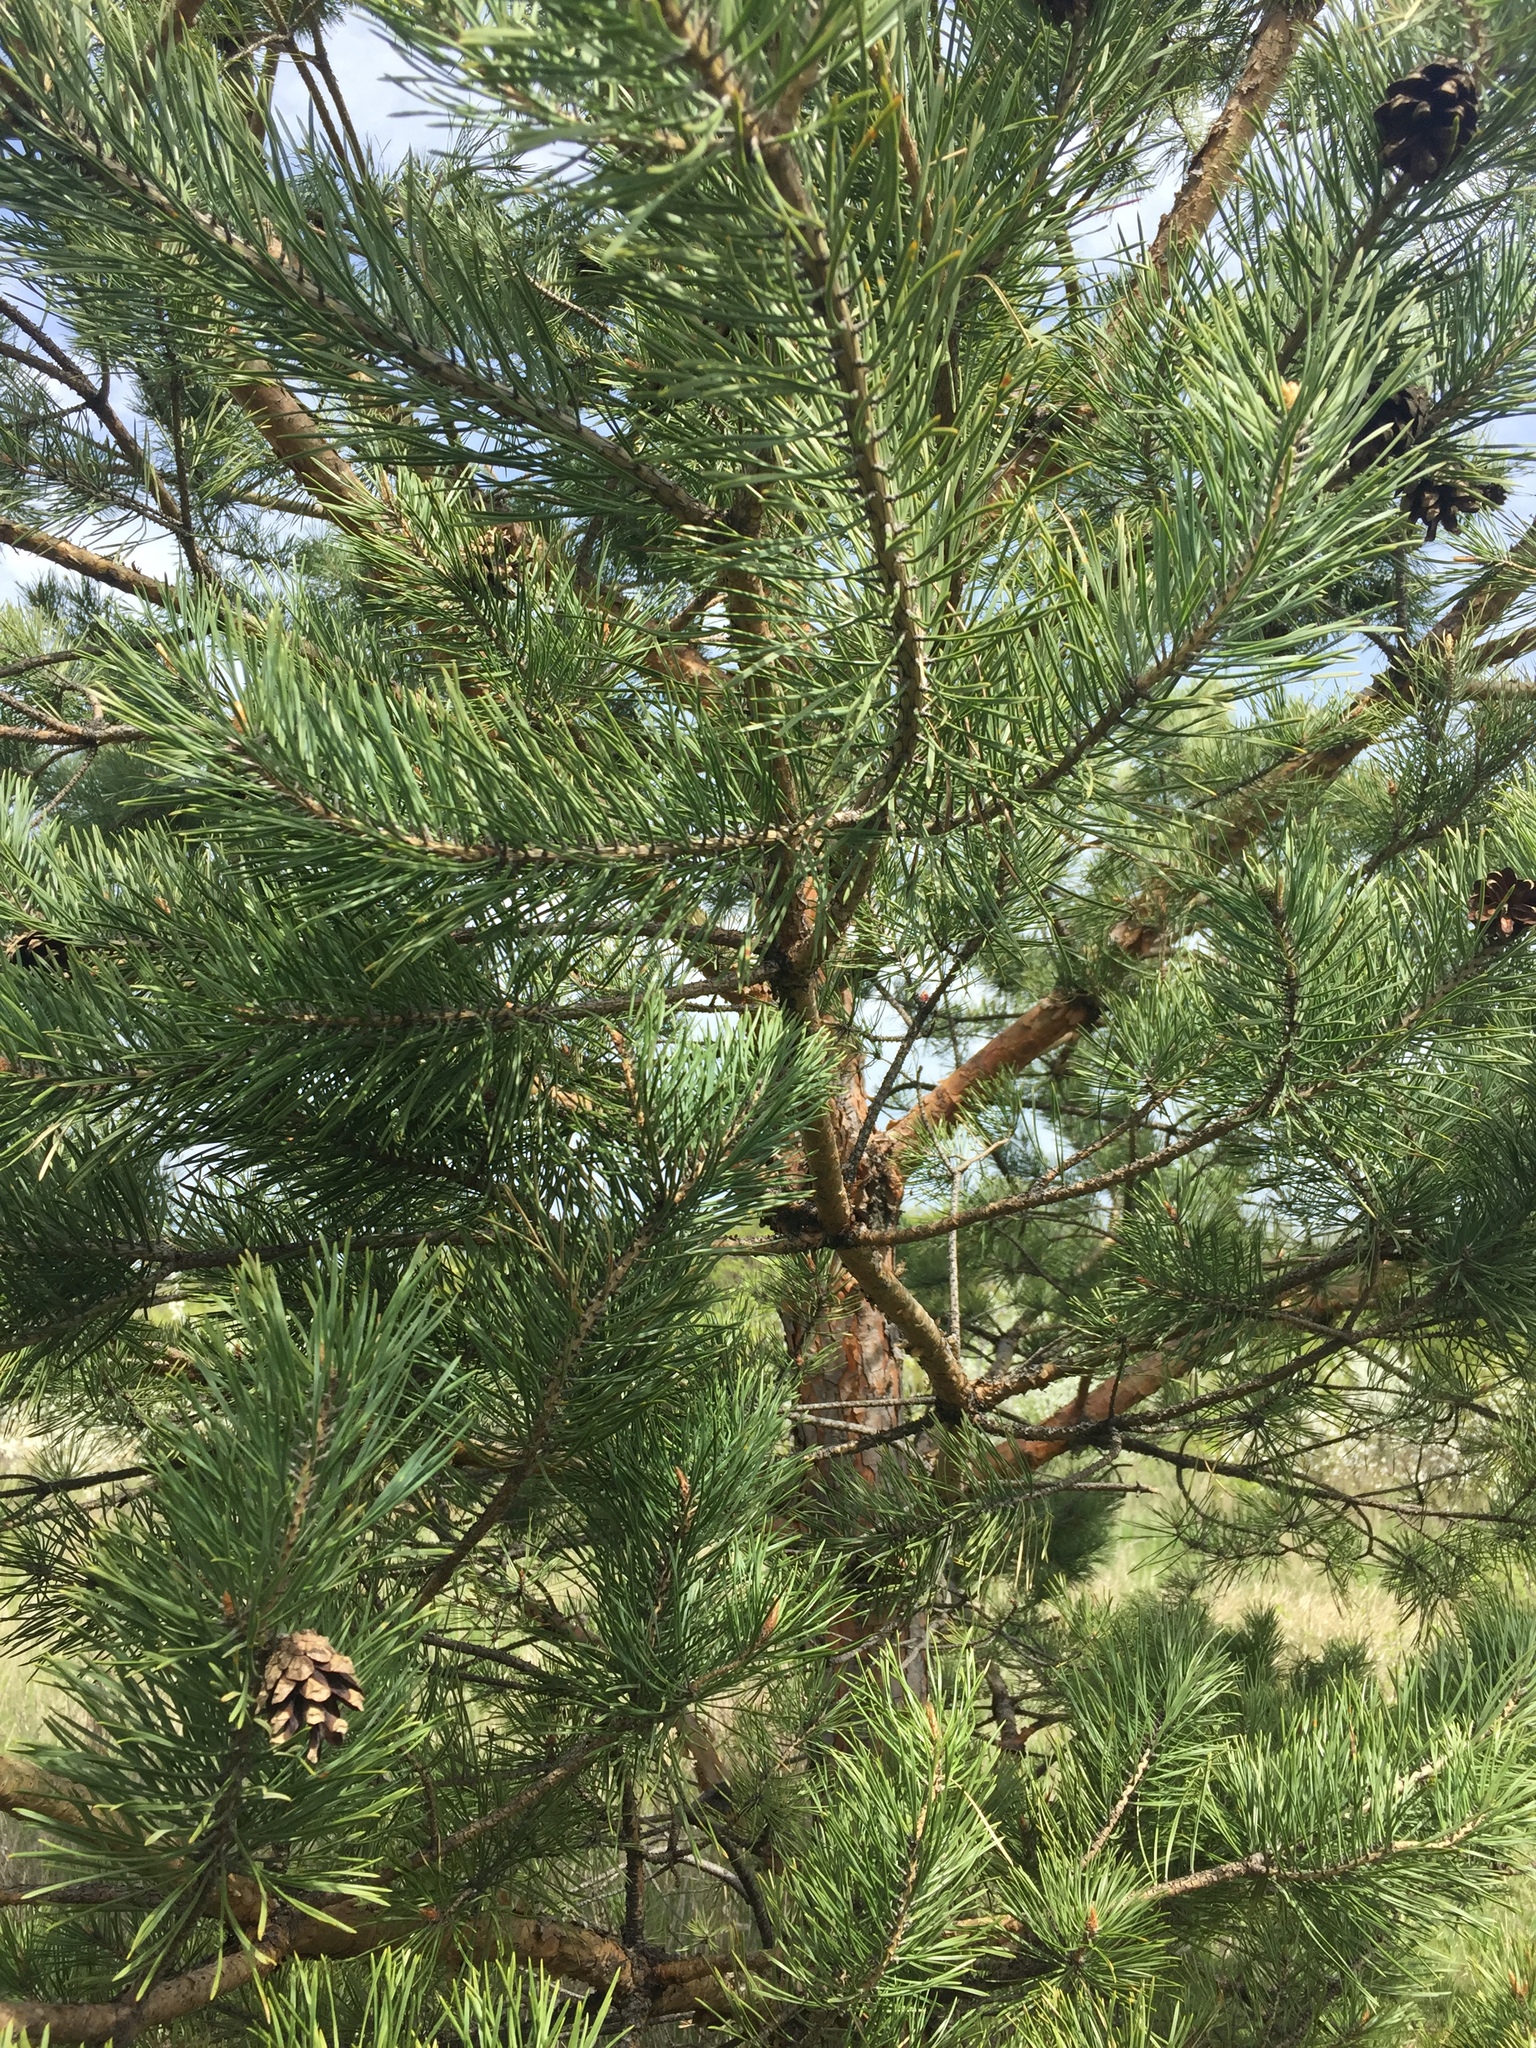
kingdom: Plantae
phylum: Tracheophyta
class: Pinopsida
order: Pinales
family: Pinaceae
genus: Pinus
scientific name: Pinus sylvestris
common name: Scots pine
